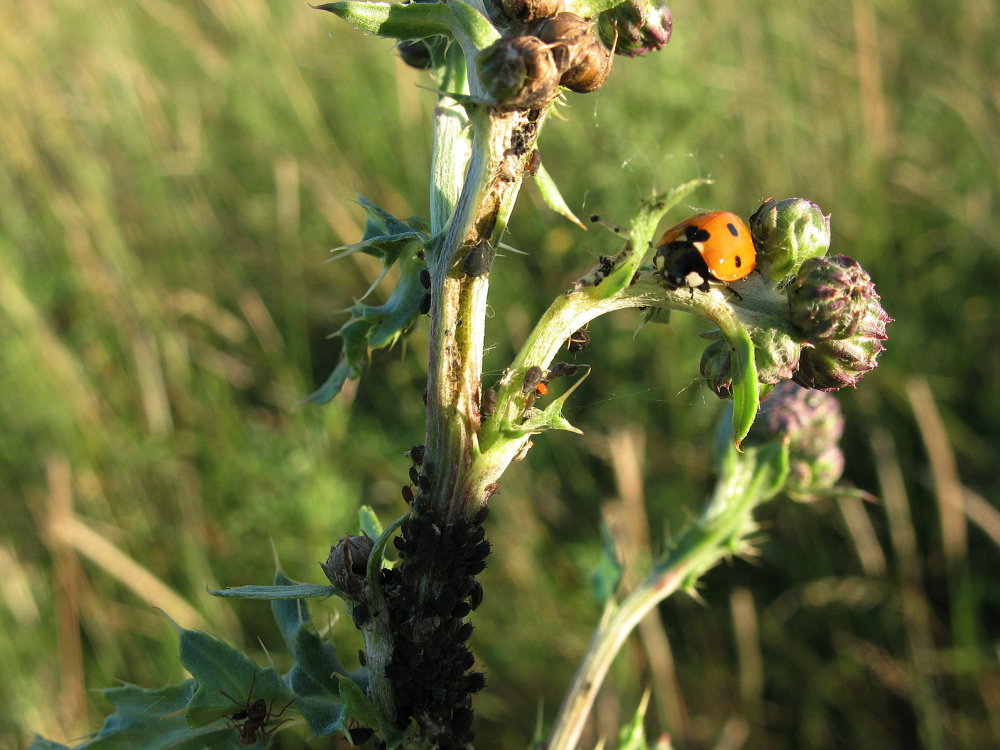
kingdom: Animalia
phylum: Arthropoda
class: Insecta
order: Coleoptera
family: Coccinellidae
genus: Coccinella
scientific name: Coccinella septempunctata
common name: Sevenspotted lady beetle
